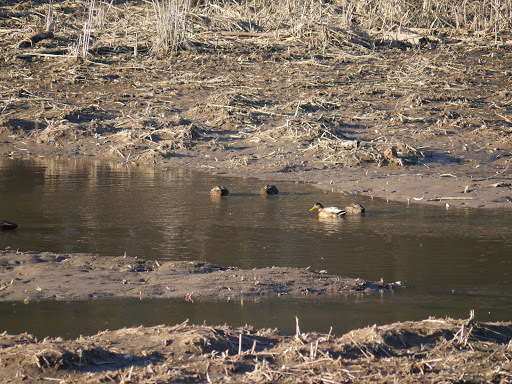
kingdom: Animalia
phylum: Chordata
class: Aves
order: Anseriformes
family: Anatidae
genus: Anas
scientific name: Anas platyrhynchos
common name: Mallard
